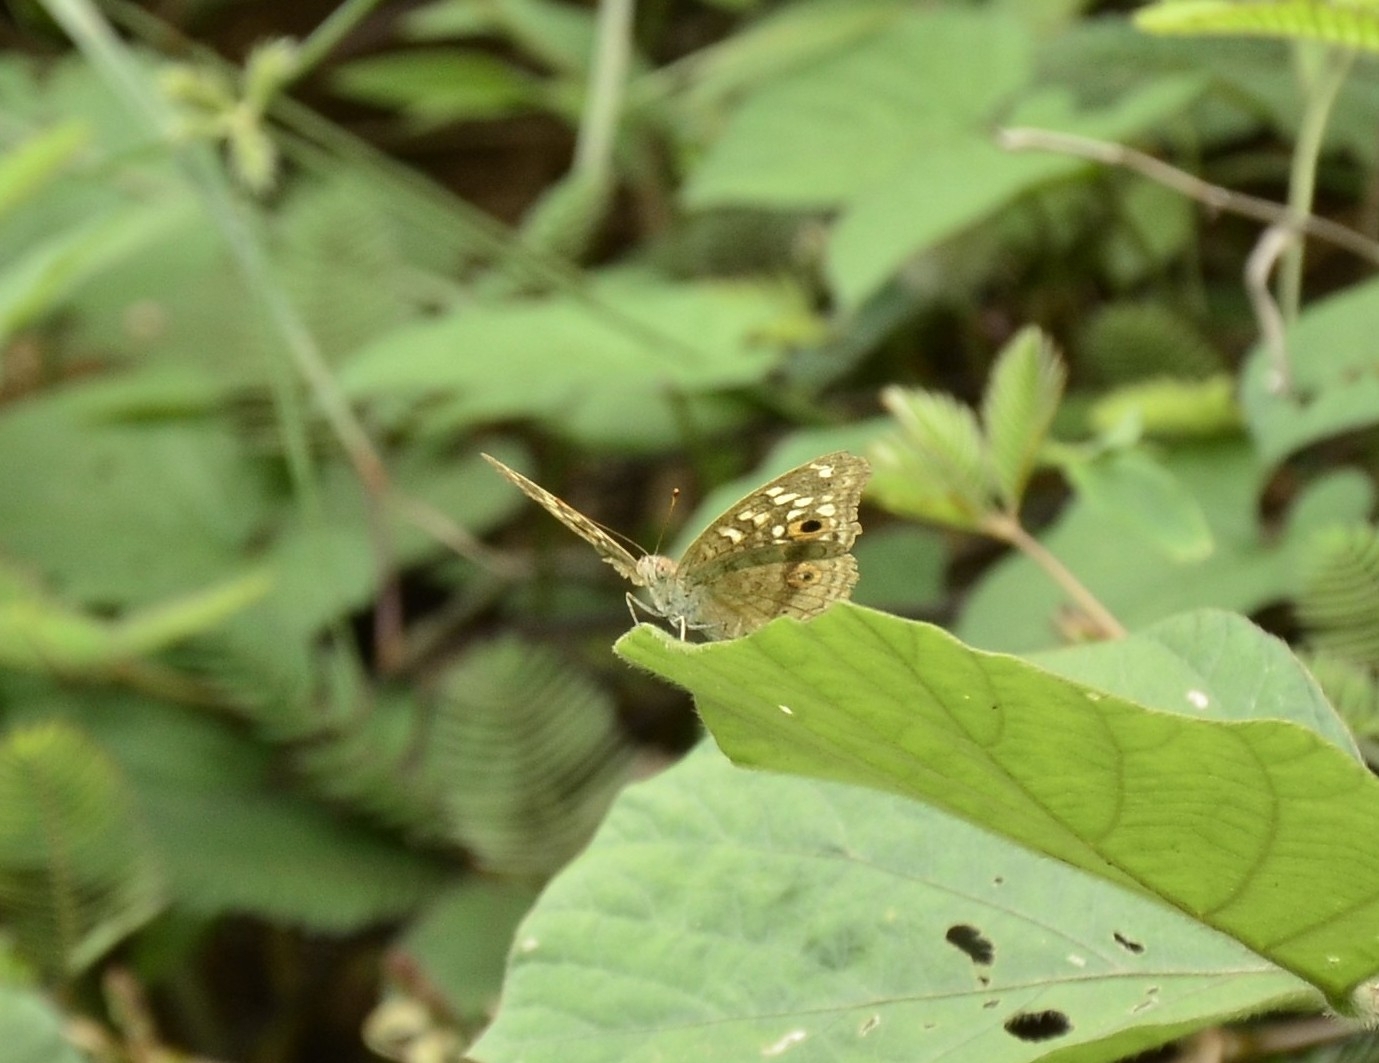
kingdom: Animalia
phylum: Arthropoda
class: Insecta
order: Lepidoptera
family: Nymphalidae
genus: Junonia
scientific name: Junonia lemonias
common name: Lemon pansy
